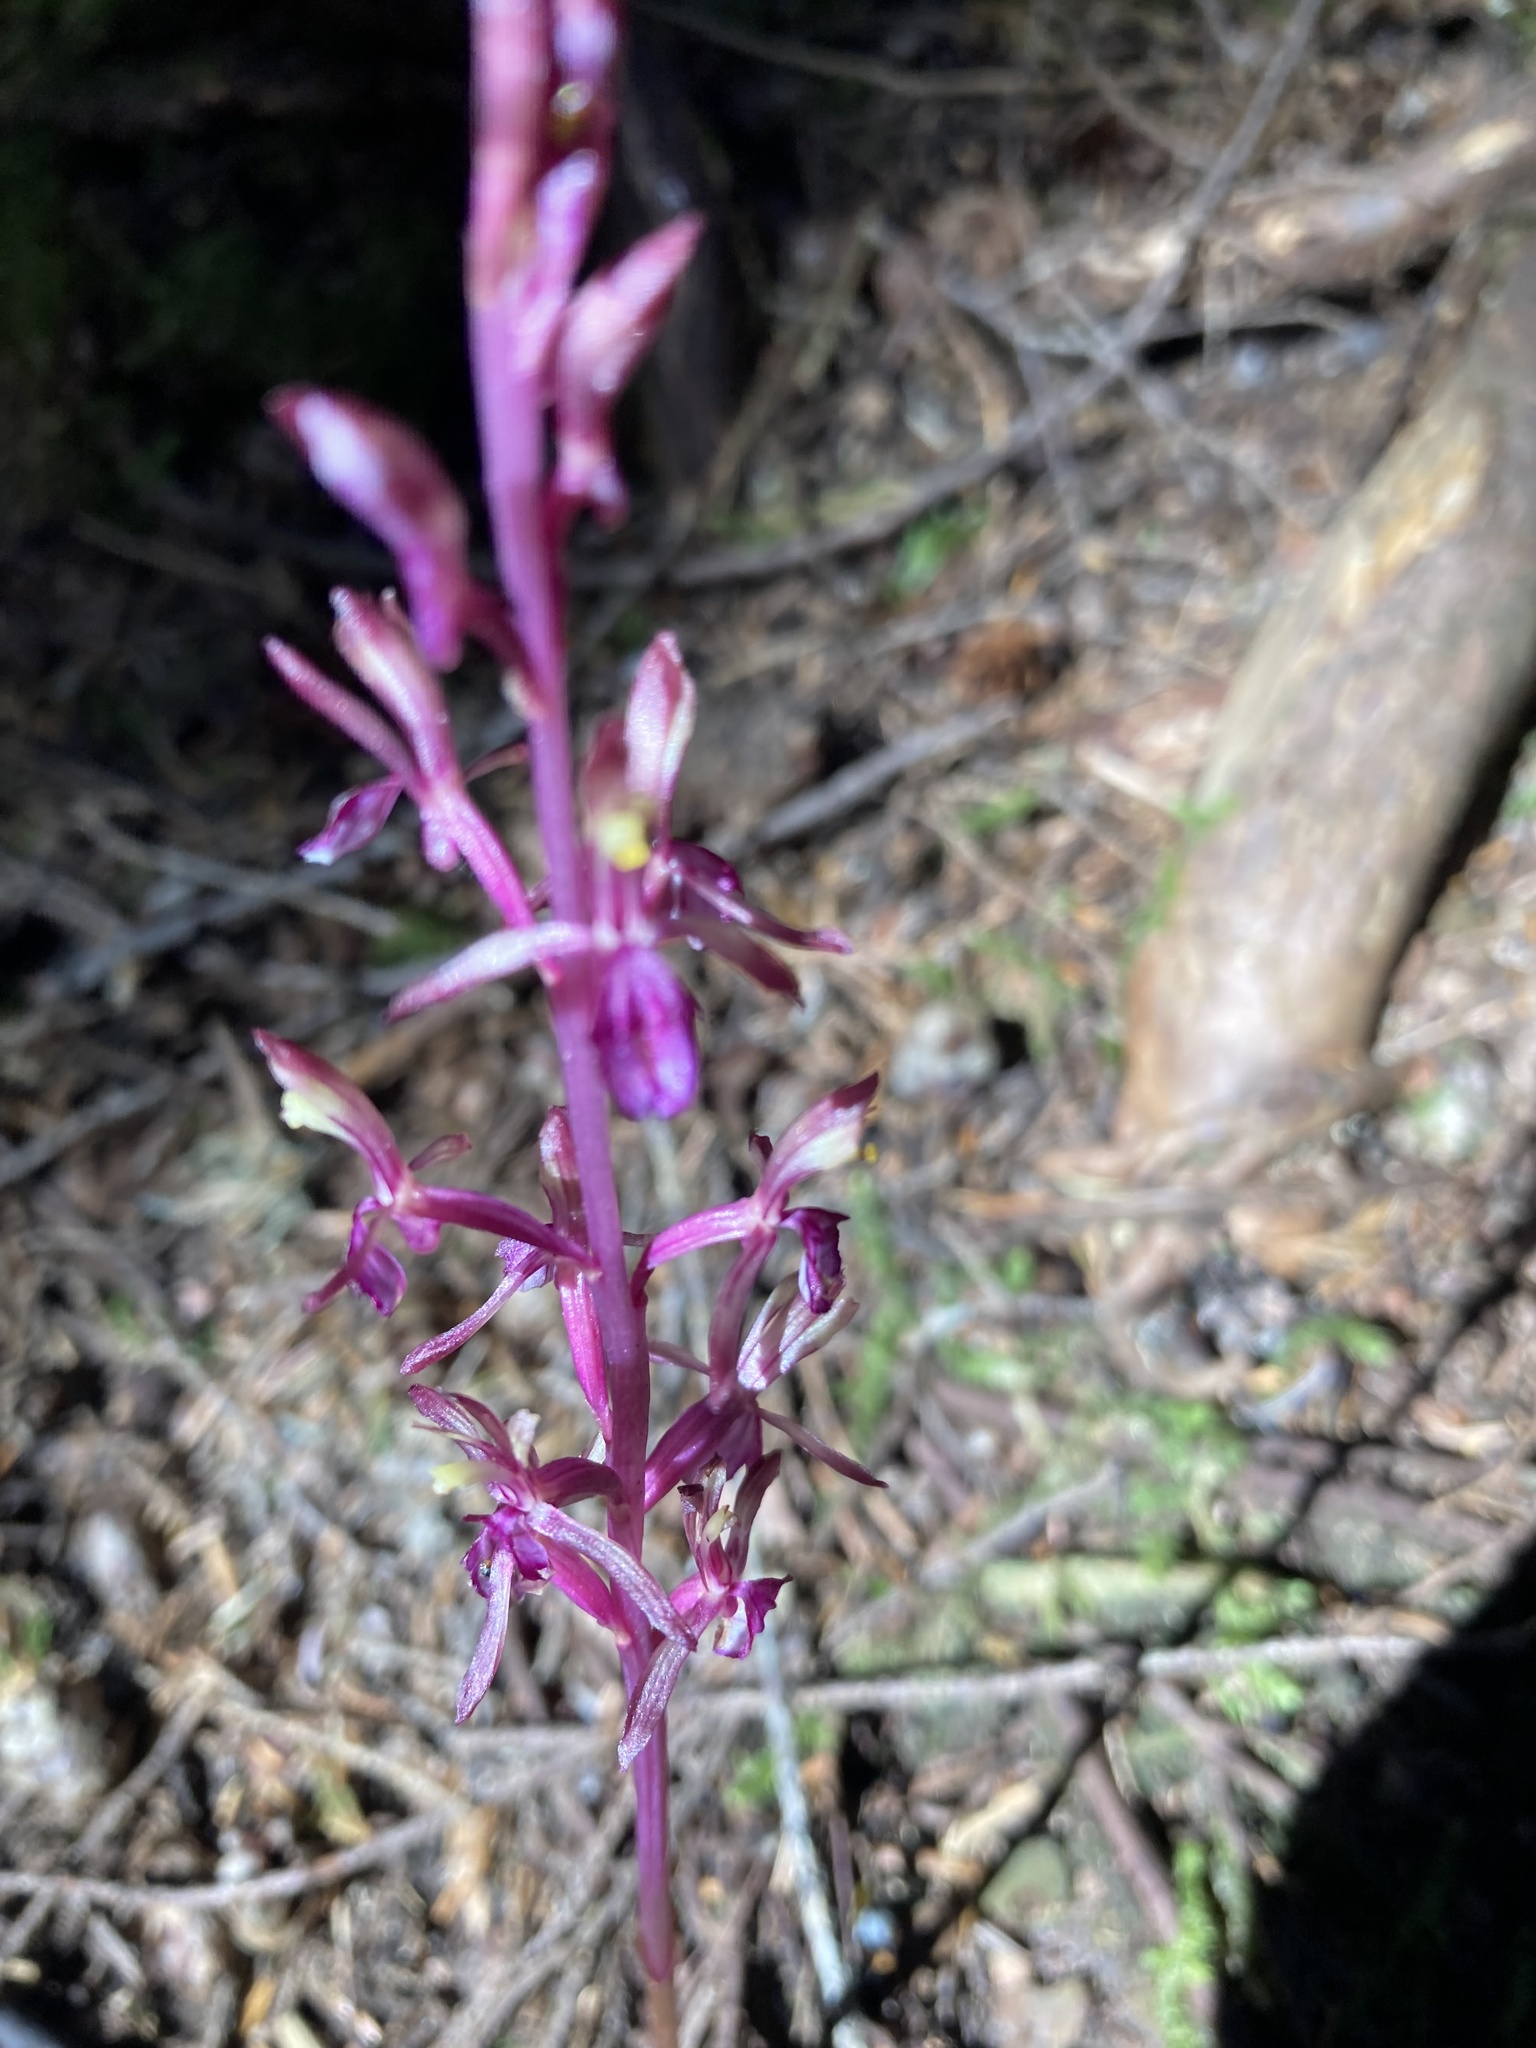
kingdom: Plantae
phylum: Tracheophyta
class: Liliopsida
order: Asparagales
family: Orchidaceae
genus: Corallorhiza
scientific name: Corallorhiza mertensiana
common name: Pacific coralroot
